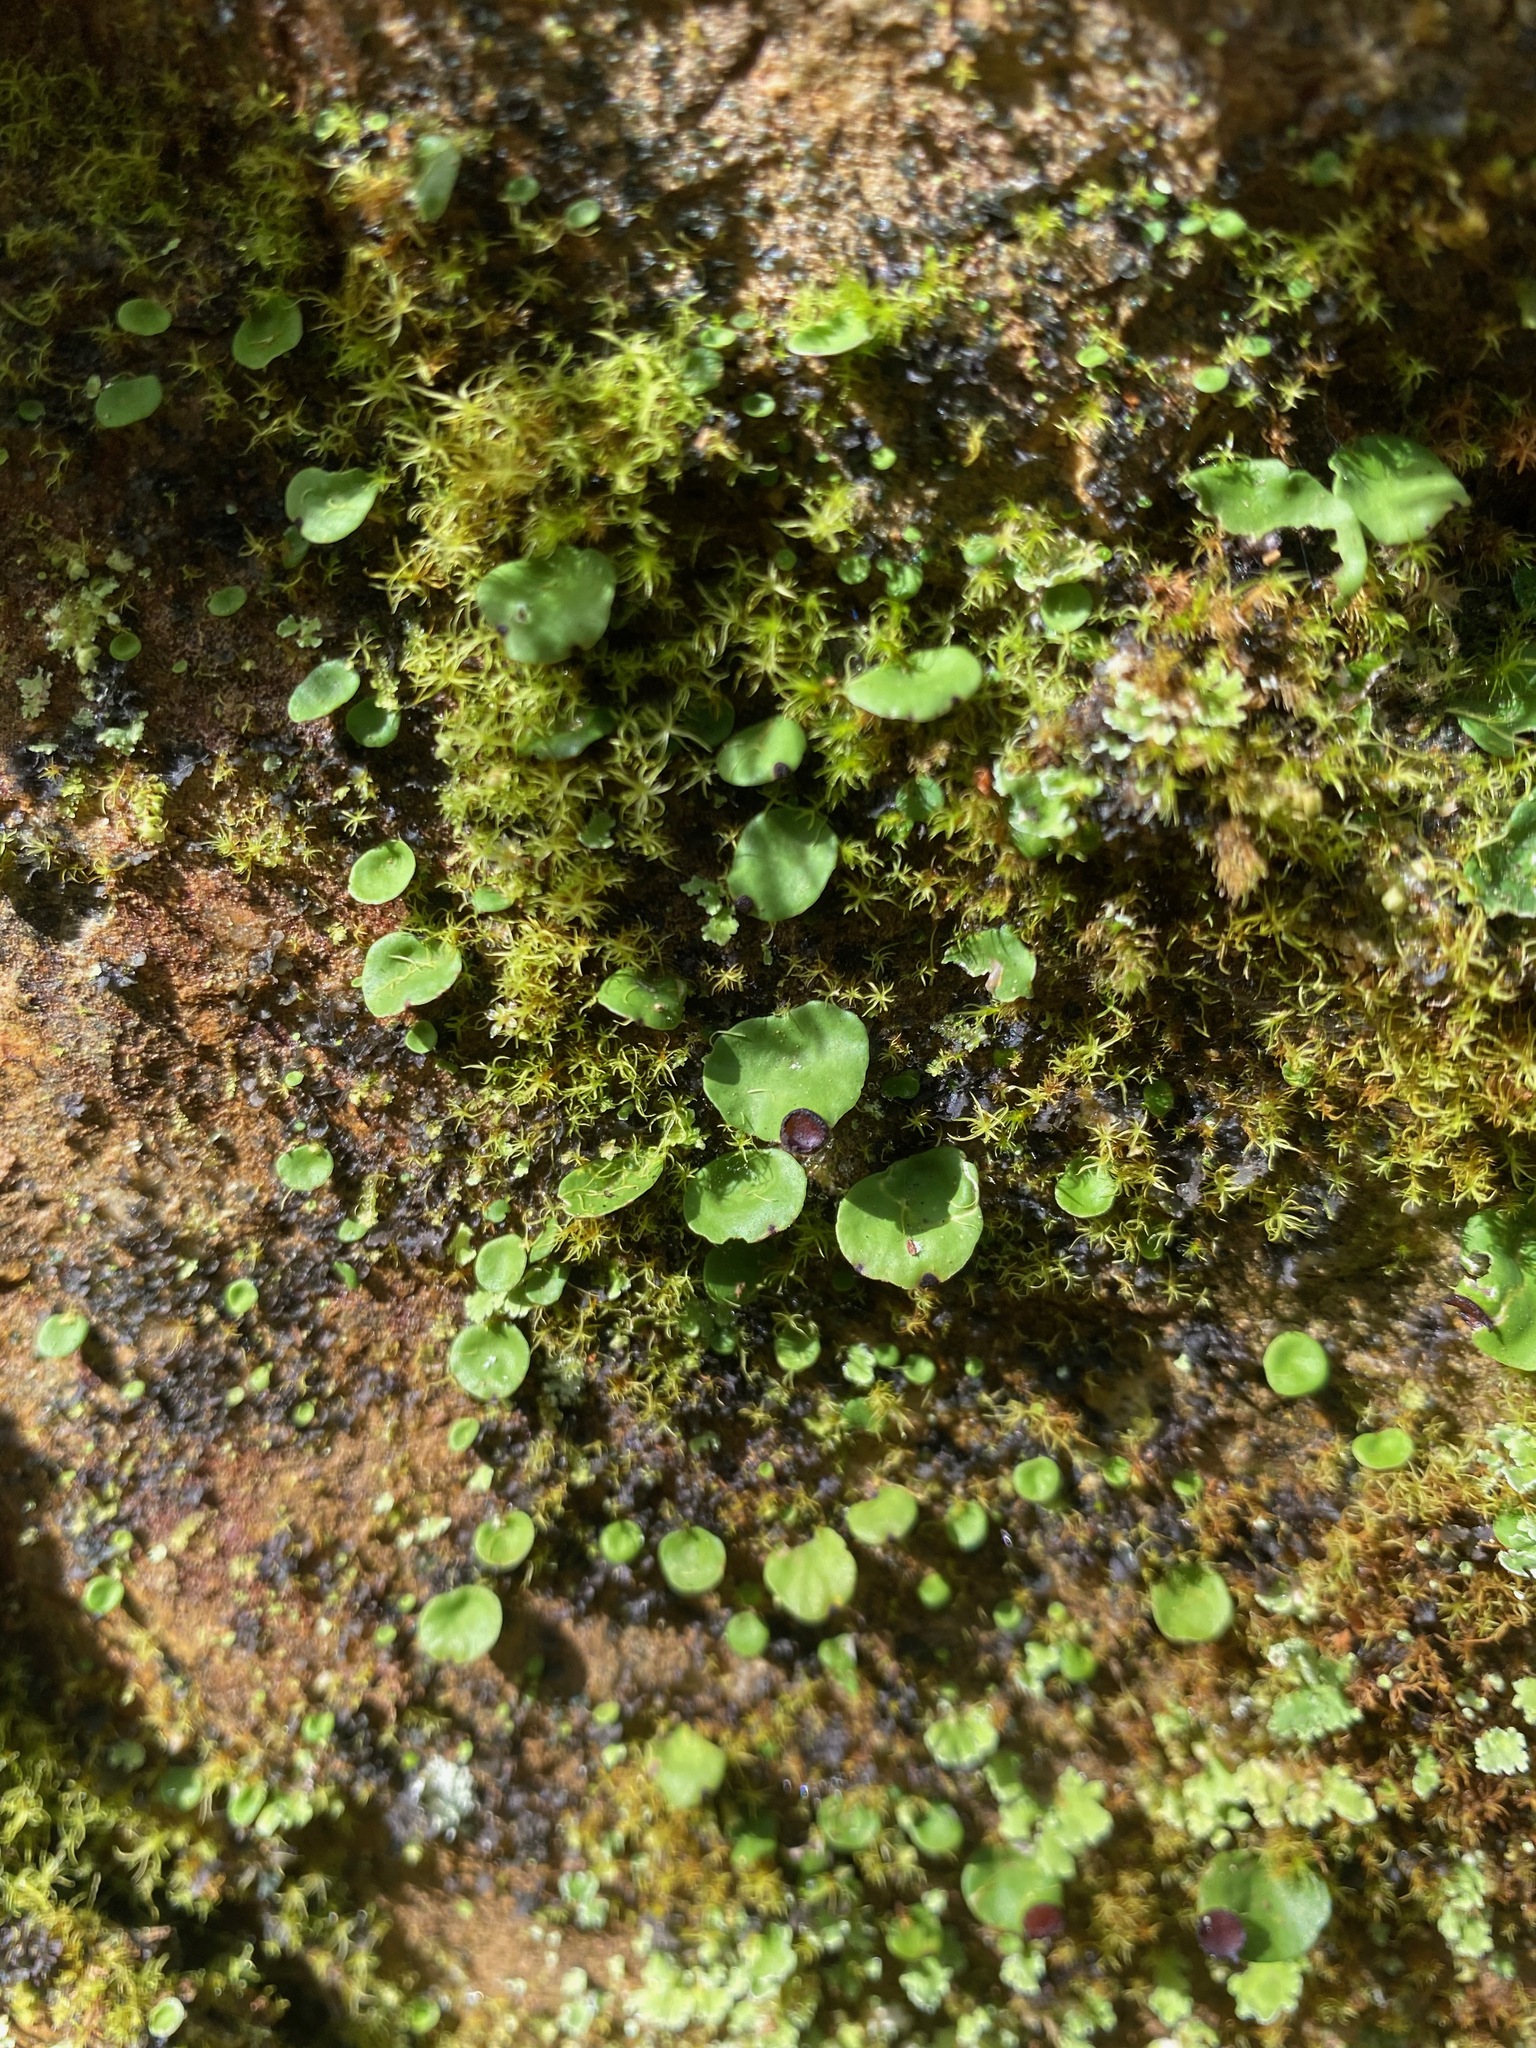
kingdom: Fungi
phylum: Ascomycota
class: Lecanoromycetes
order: Peltigerales
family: Peltigeraceae
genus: Peltigera
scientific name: Peltigera venosa
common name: Pixie gowns lichen
